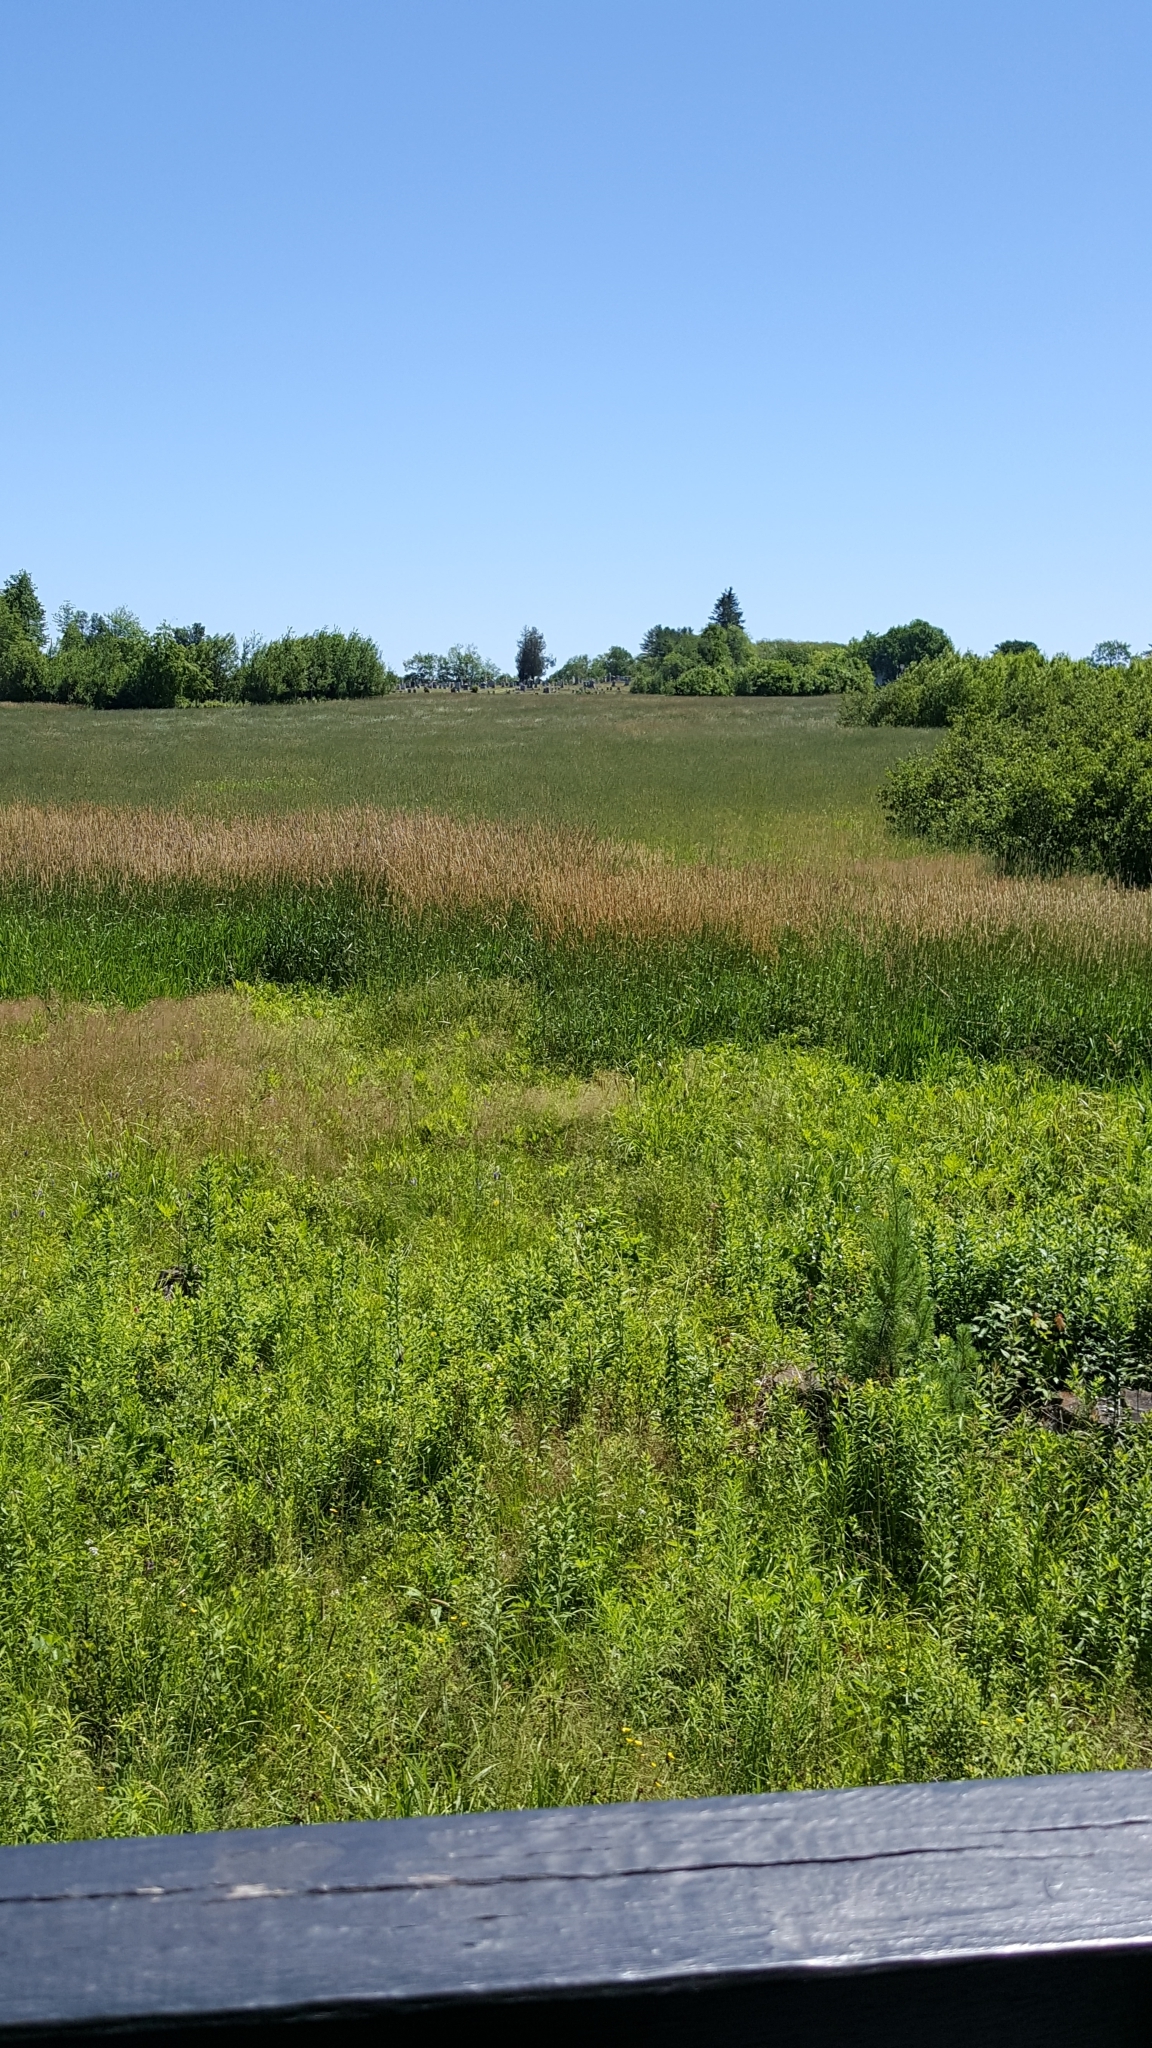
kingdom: Plantae
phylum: Tracheophyta
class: Liliopsida
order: Poales
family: Poaceae
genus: Phalaris
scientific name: Phalaris arundinacea
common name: Reed canary-grass
